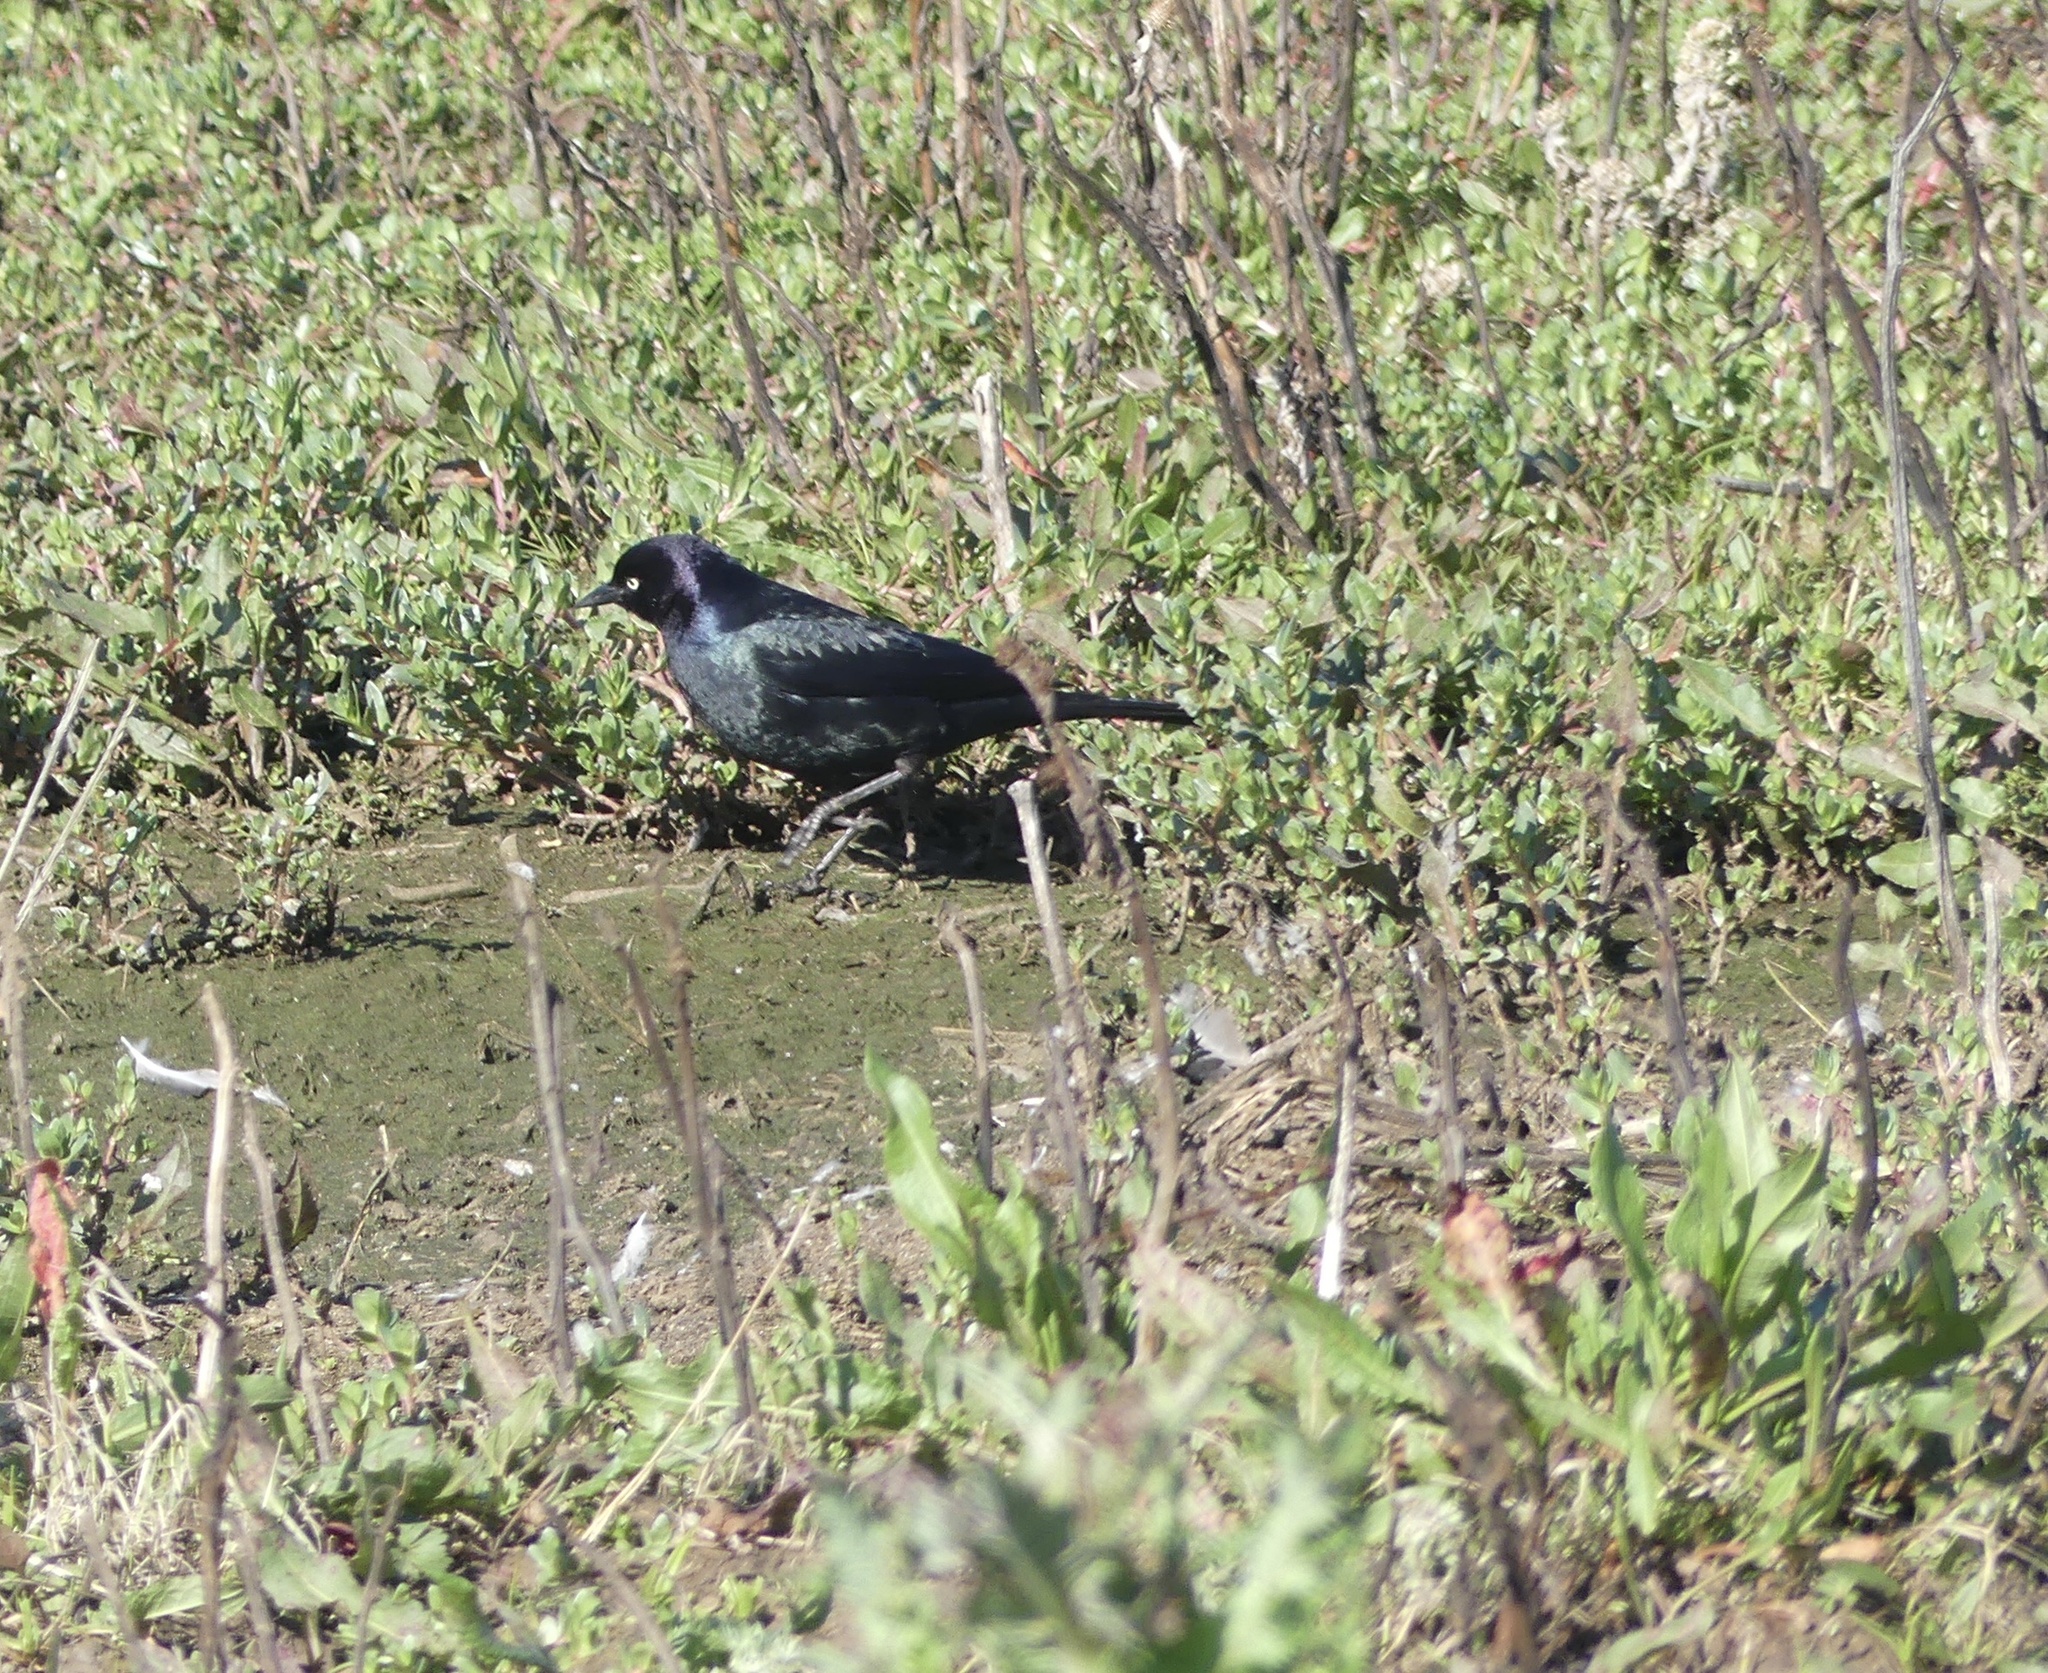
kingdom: Animalia
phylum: Chordata
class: Aves
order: Passeriformes
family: Icteridae
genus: Euphagus
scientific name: Euphagus cyanocephalus
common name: Brewer's blackbird
